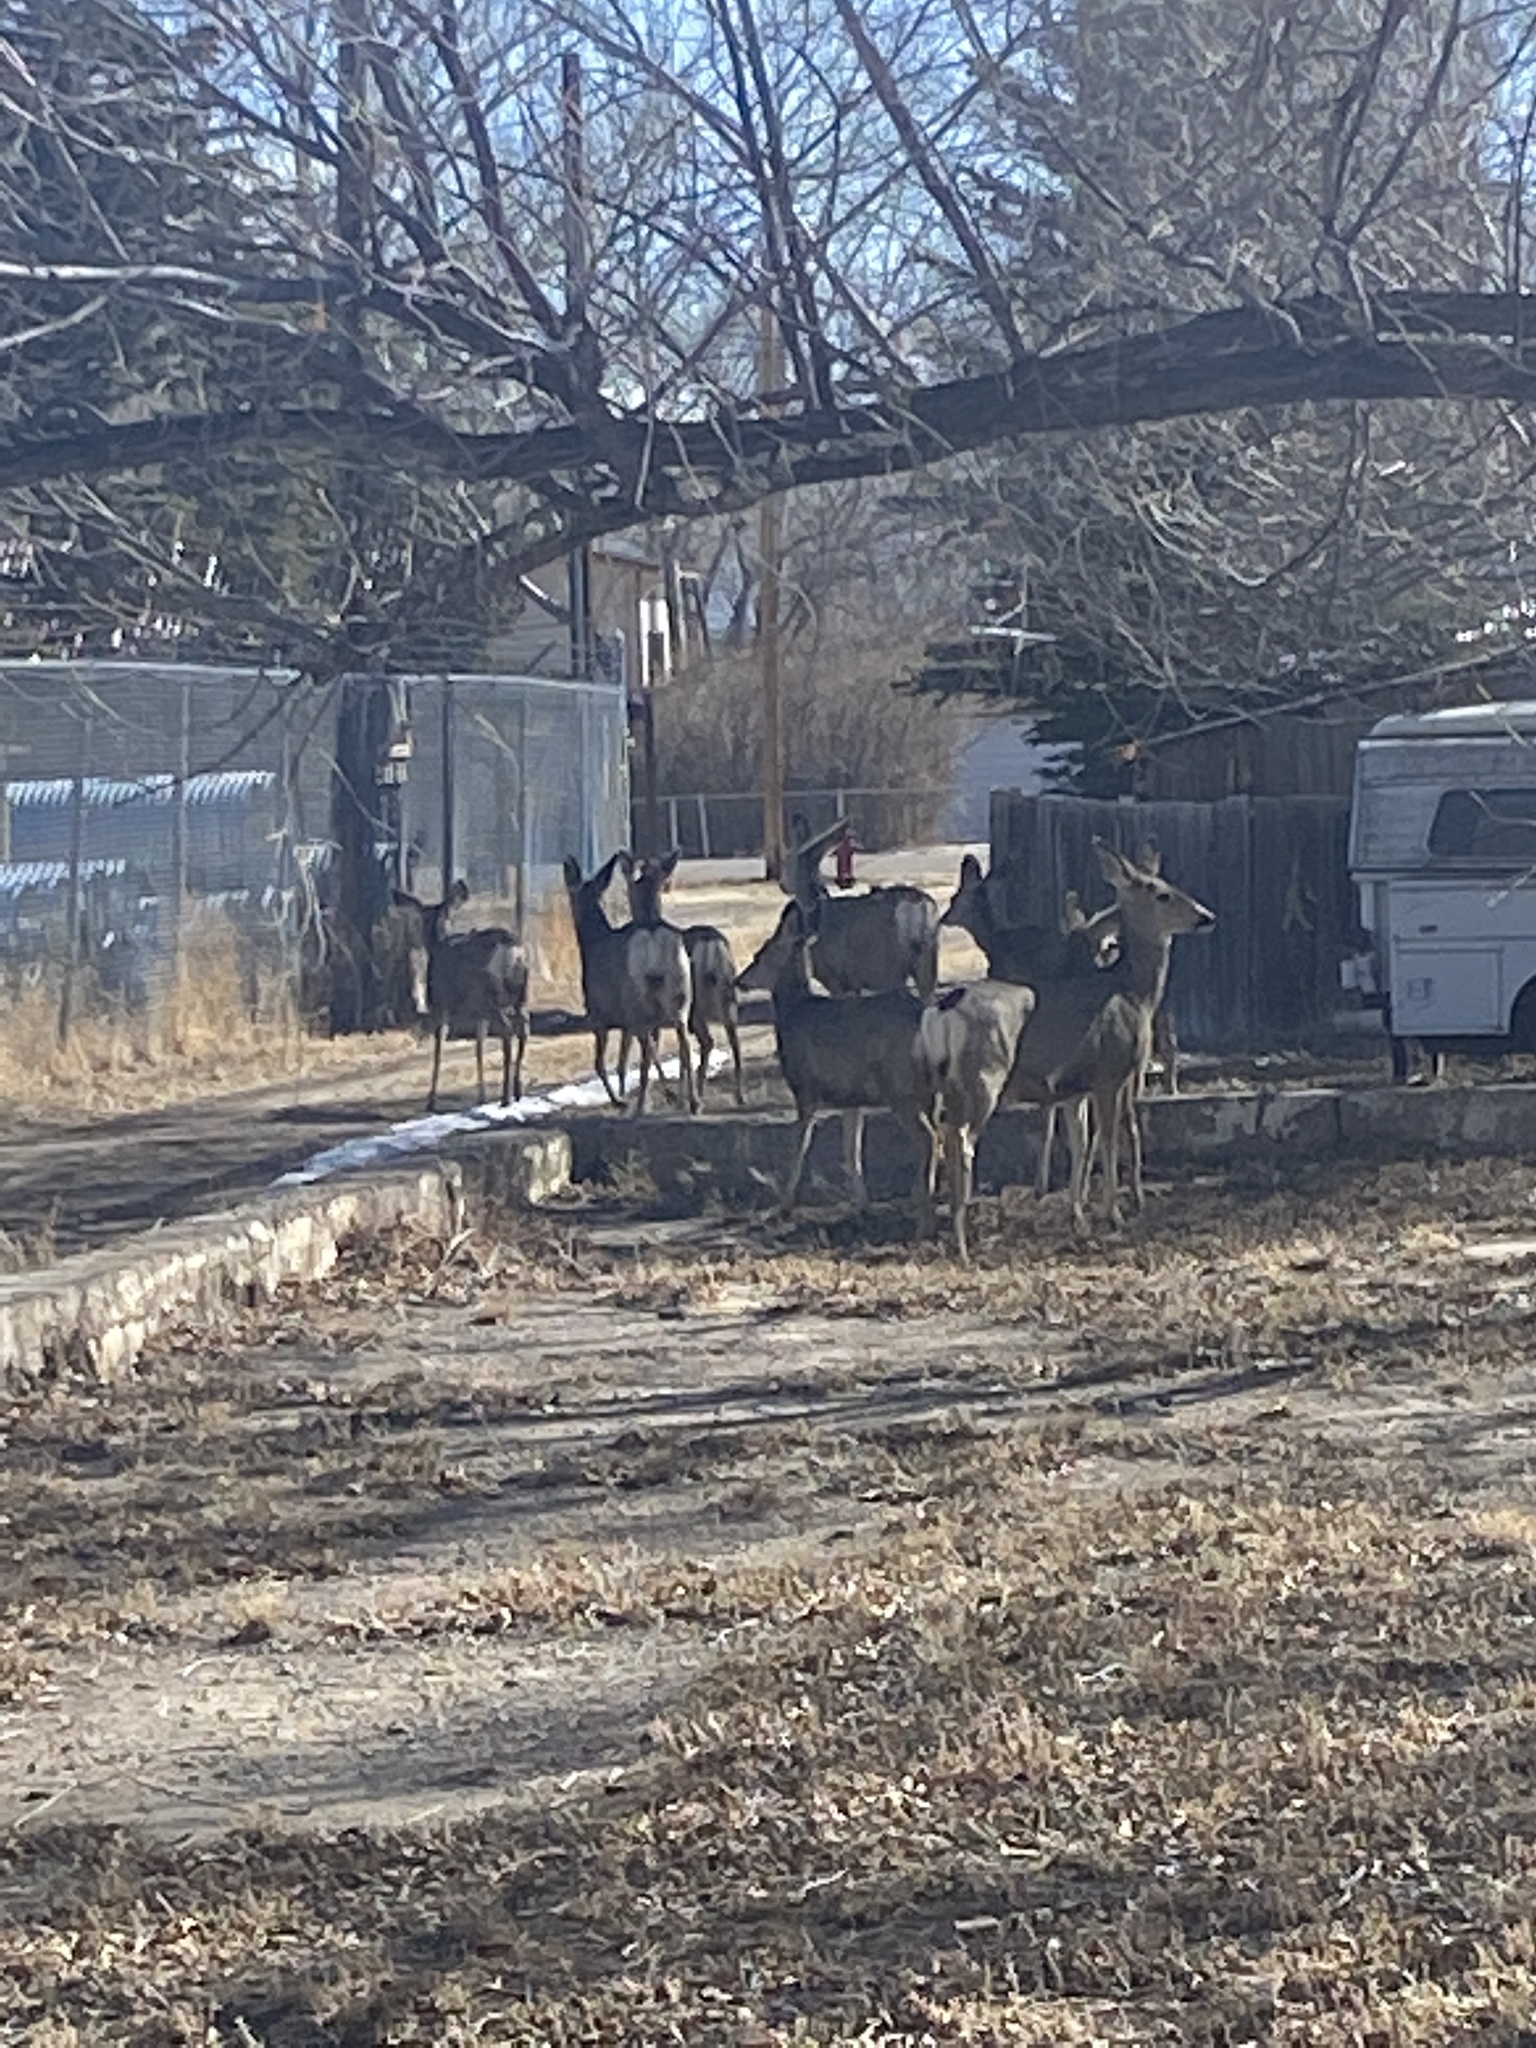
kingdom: Animalia
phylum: Chordata
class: Mammalia
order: Artiodactyla
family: Cervidae
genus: Odocoileus
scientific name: Odocoileus hemionus
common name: Mule deer
